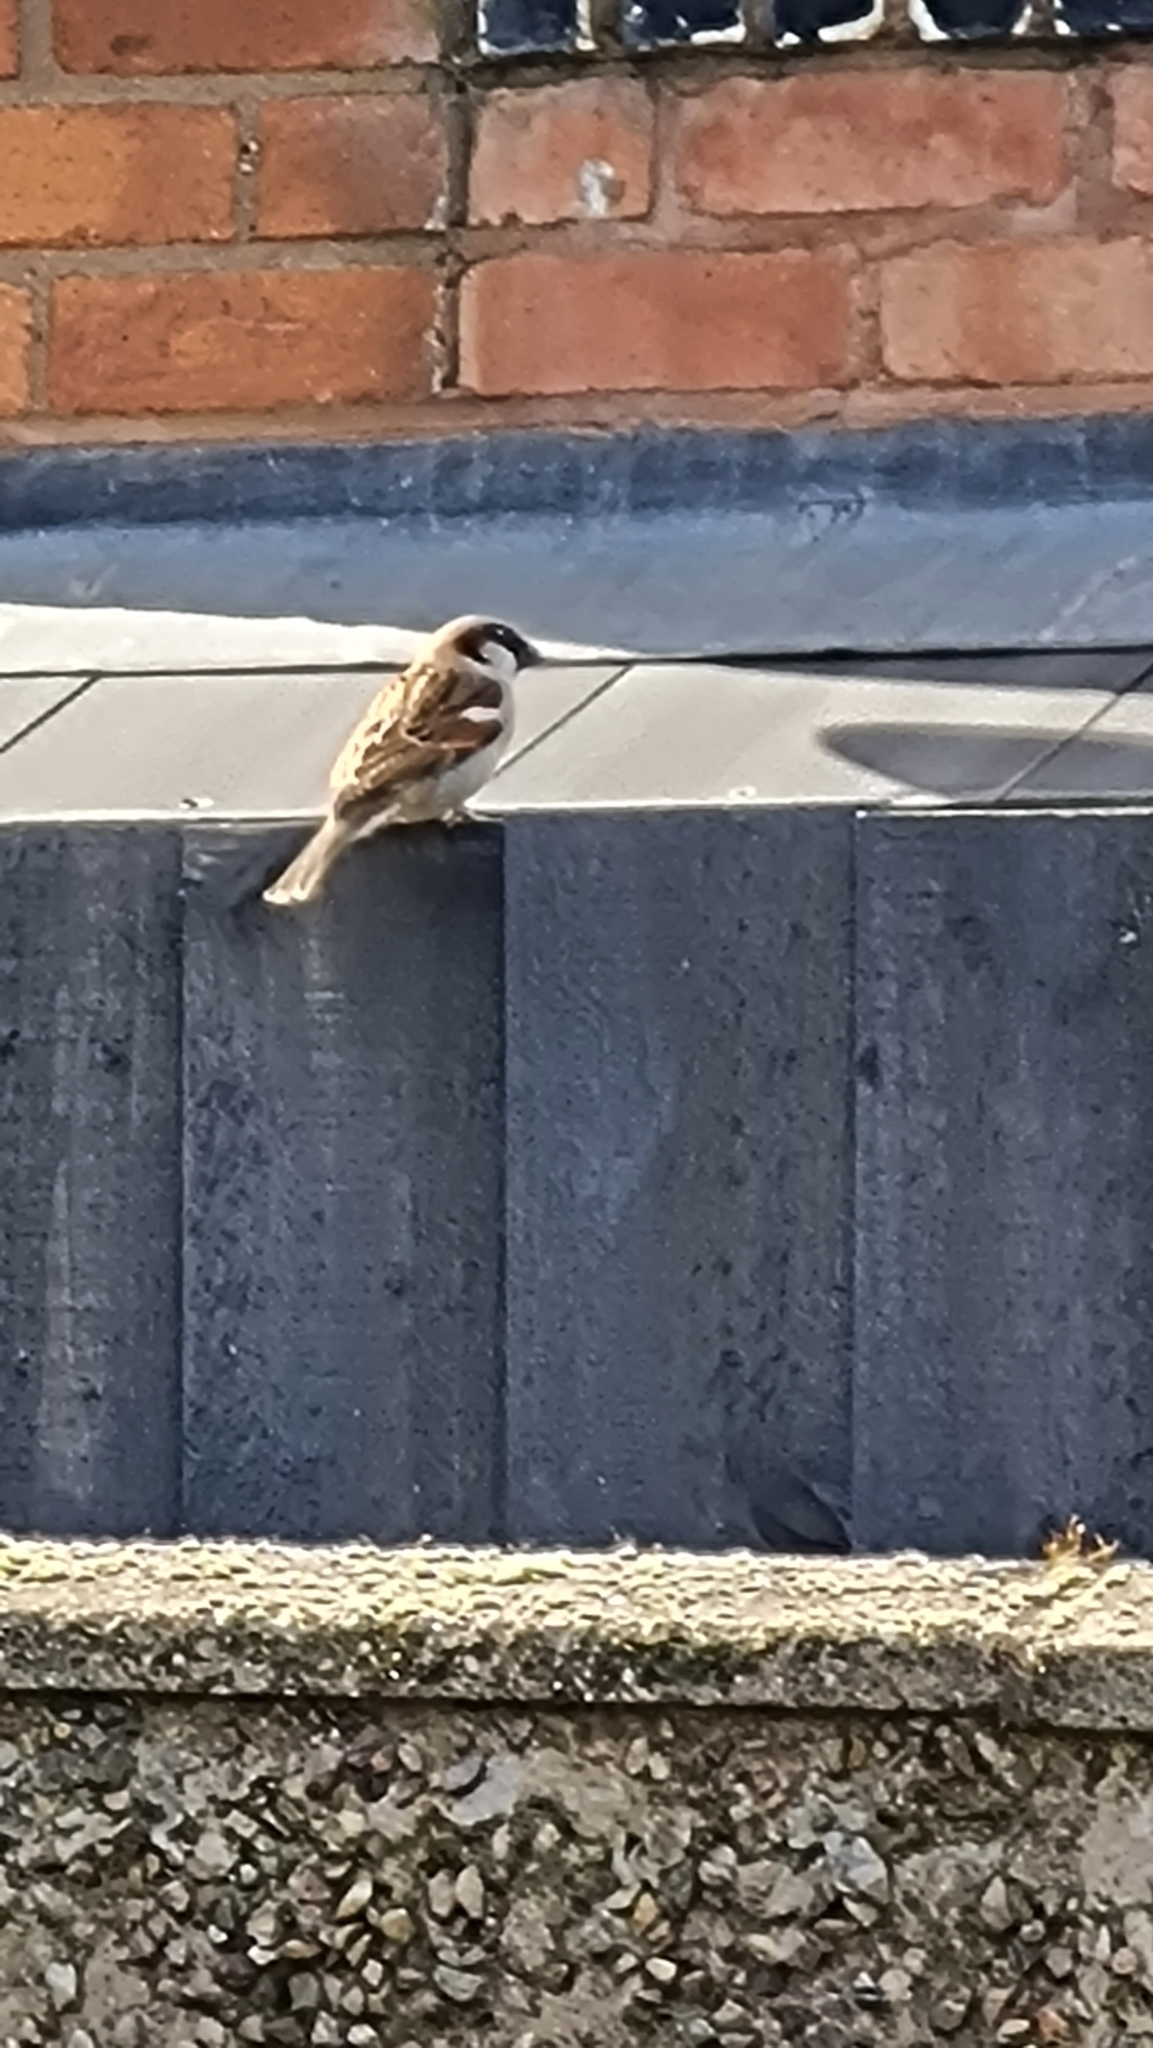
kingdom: Animalia
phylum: Chordata
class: Aves
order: Passeriformes
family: Passeridae
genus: Passer
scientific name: Passer domesticus
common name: House sparrow
